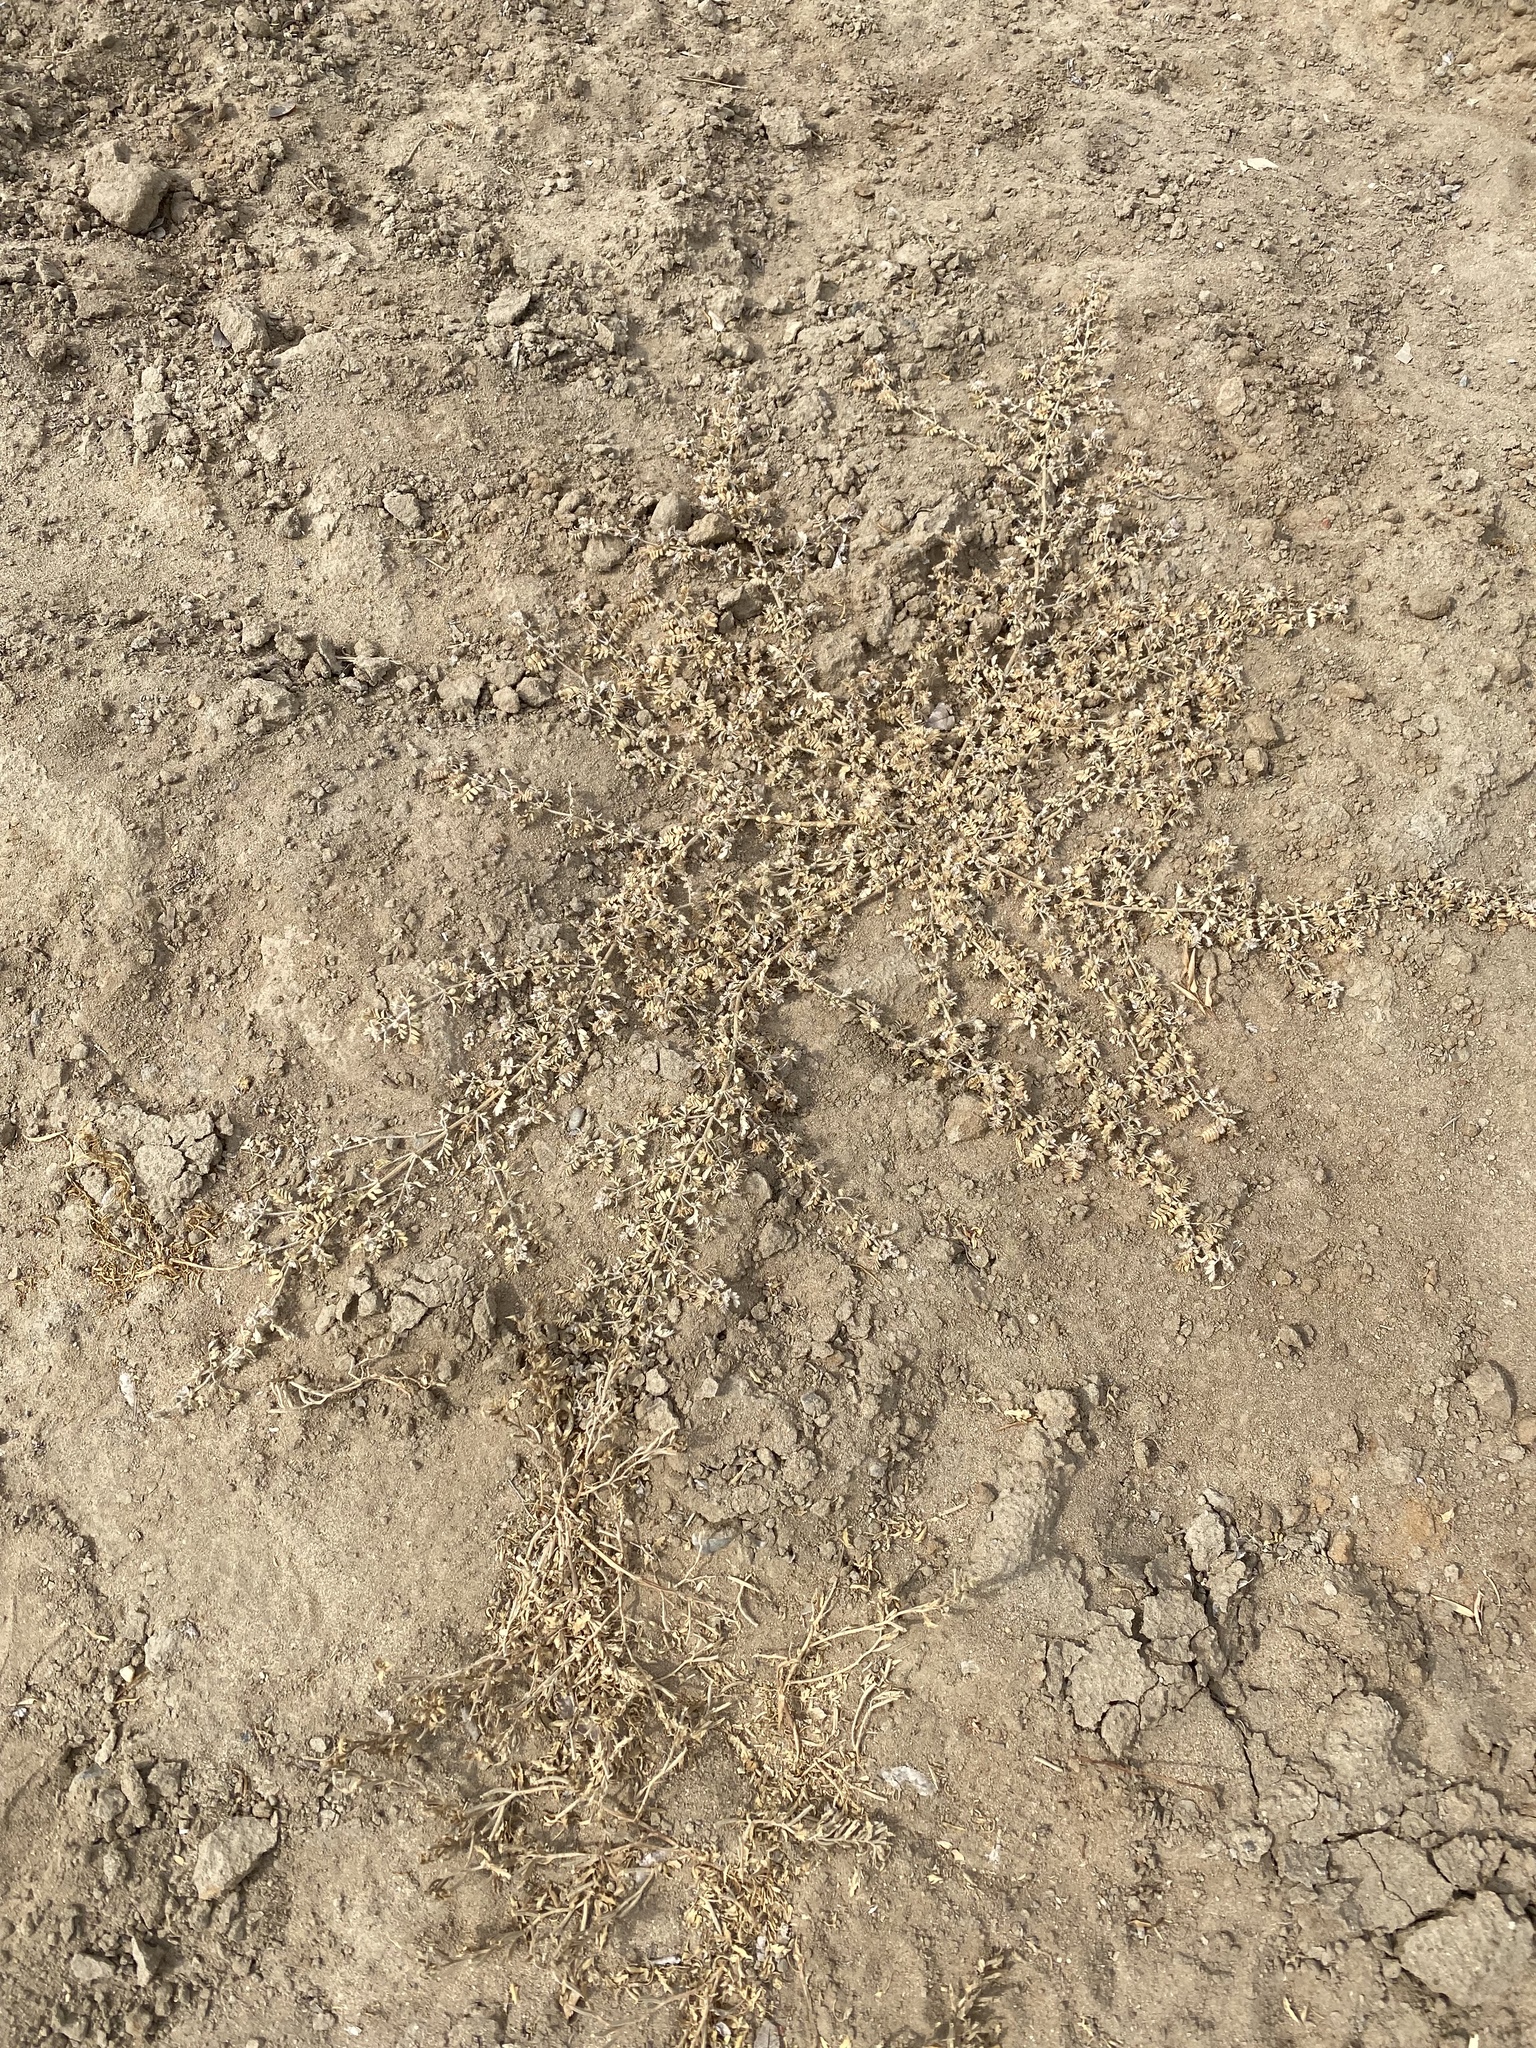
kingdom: Plantae
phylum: Tracheophyta
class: Magnoliopsida
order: Zygophyllales
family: Zygophyllaceae
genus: Tribulus
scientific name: Tribulus terrestris
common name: Puncturevine
